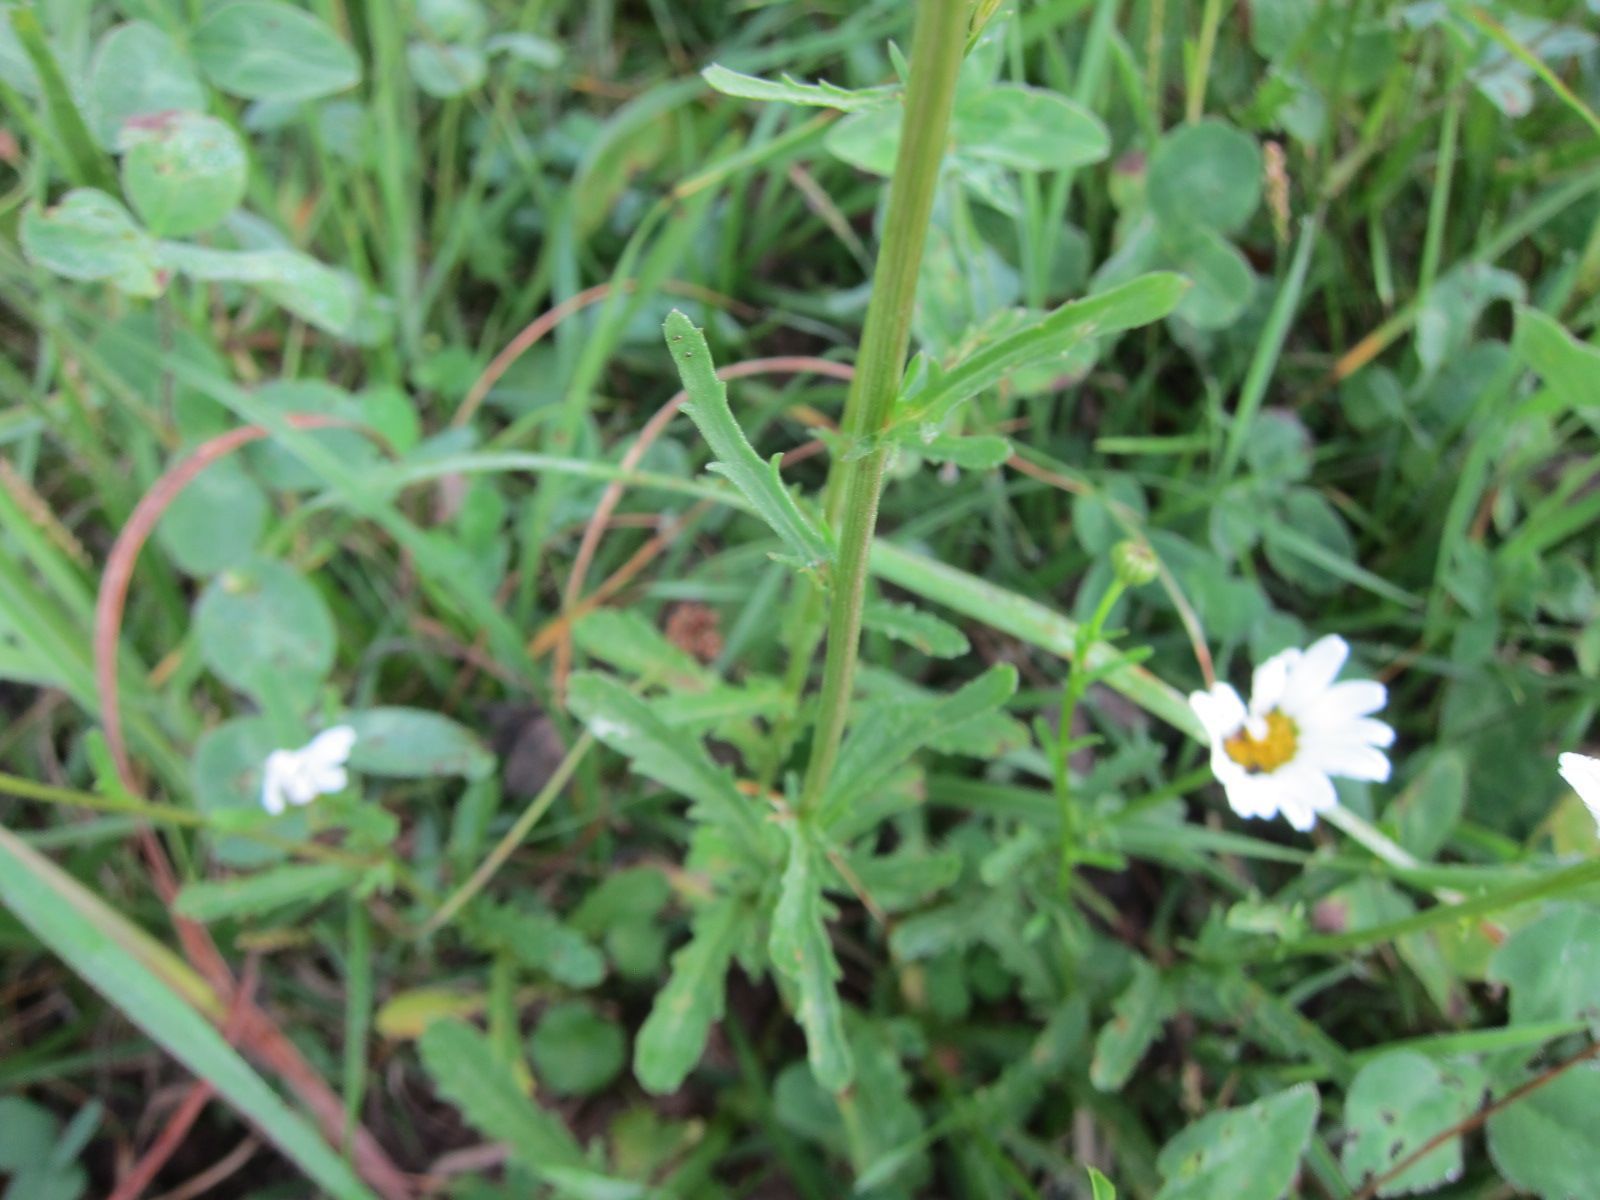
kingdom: Plantae
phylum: Tracheophyta
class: Magnoliopsida
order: Asterales
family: Asteraceae
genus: Leucanthemum
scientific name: Leucanthemum vulgare
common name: Oxeye daisy
